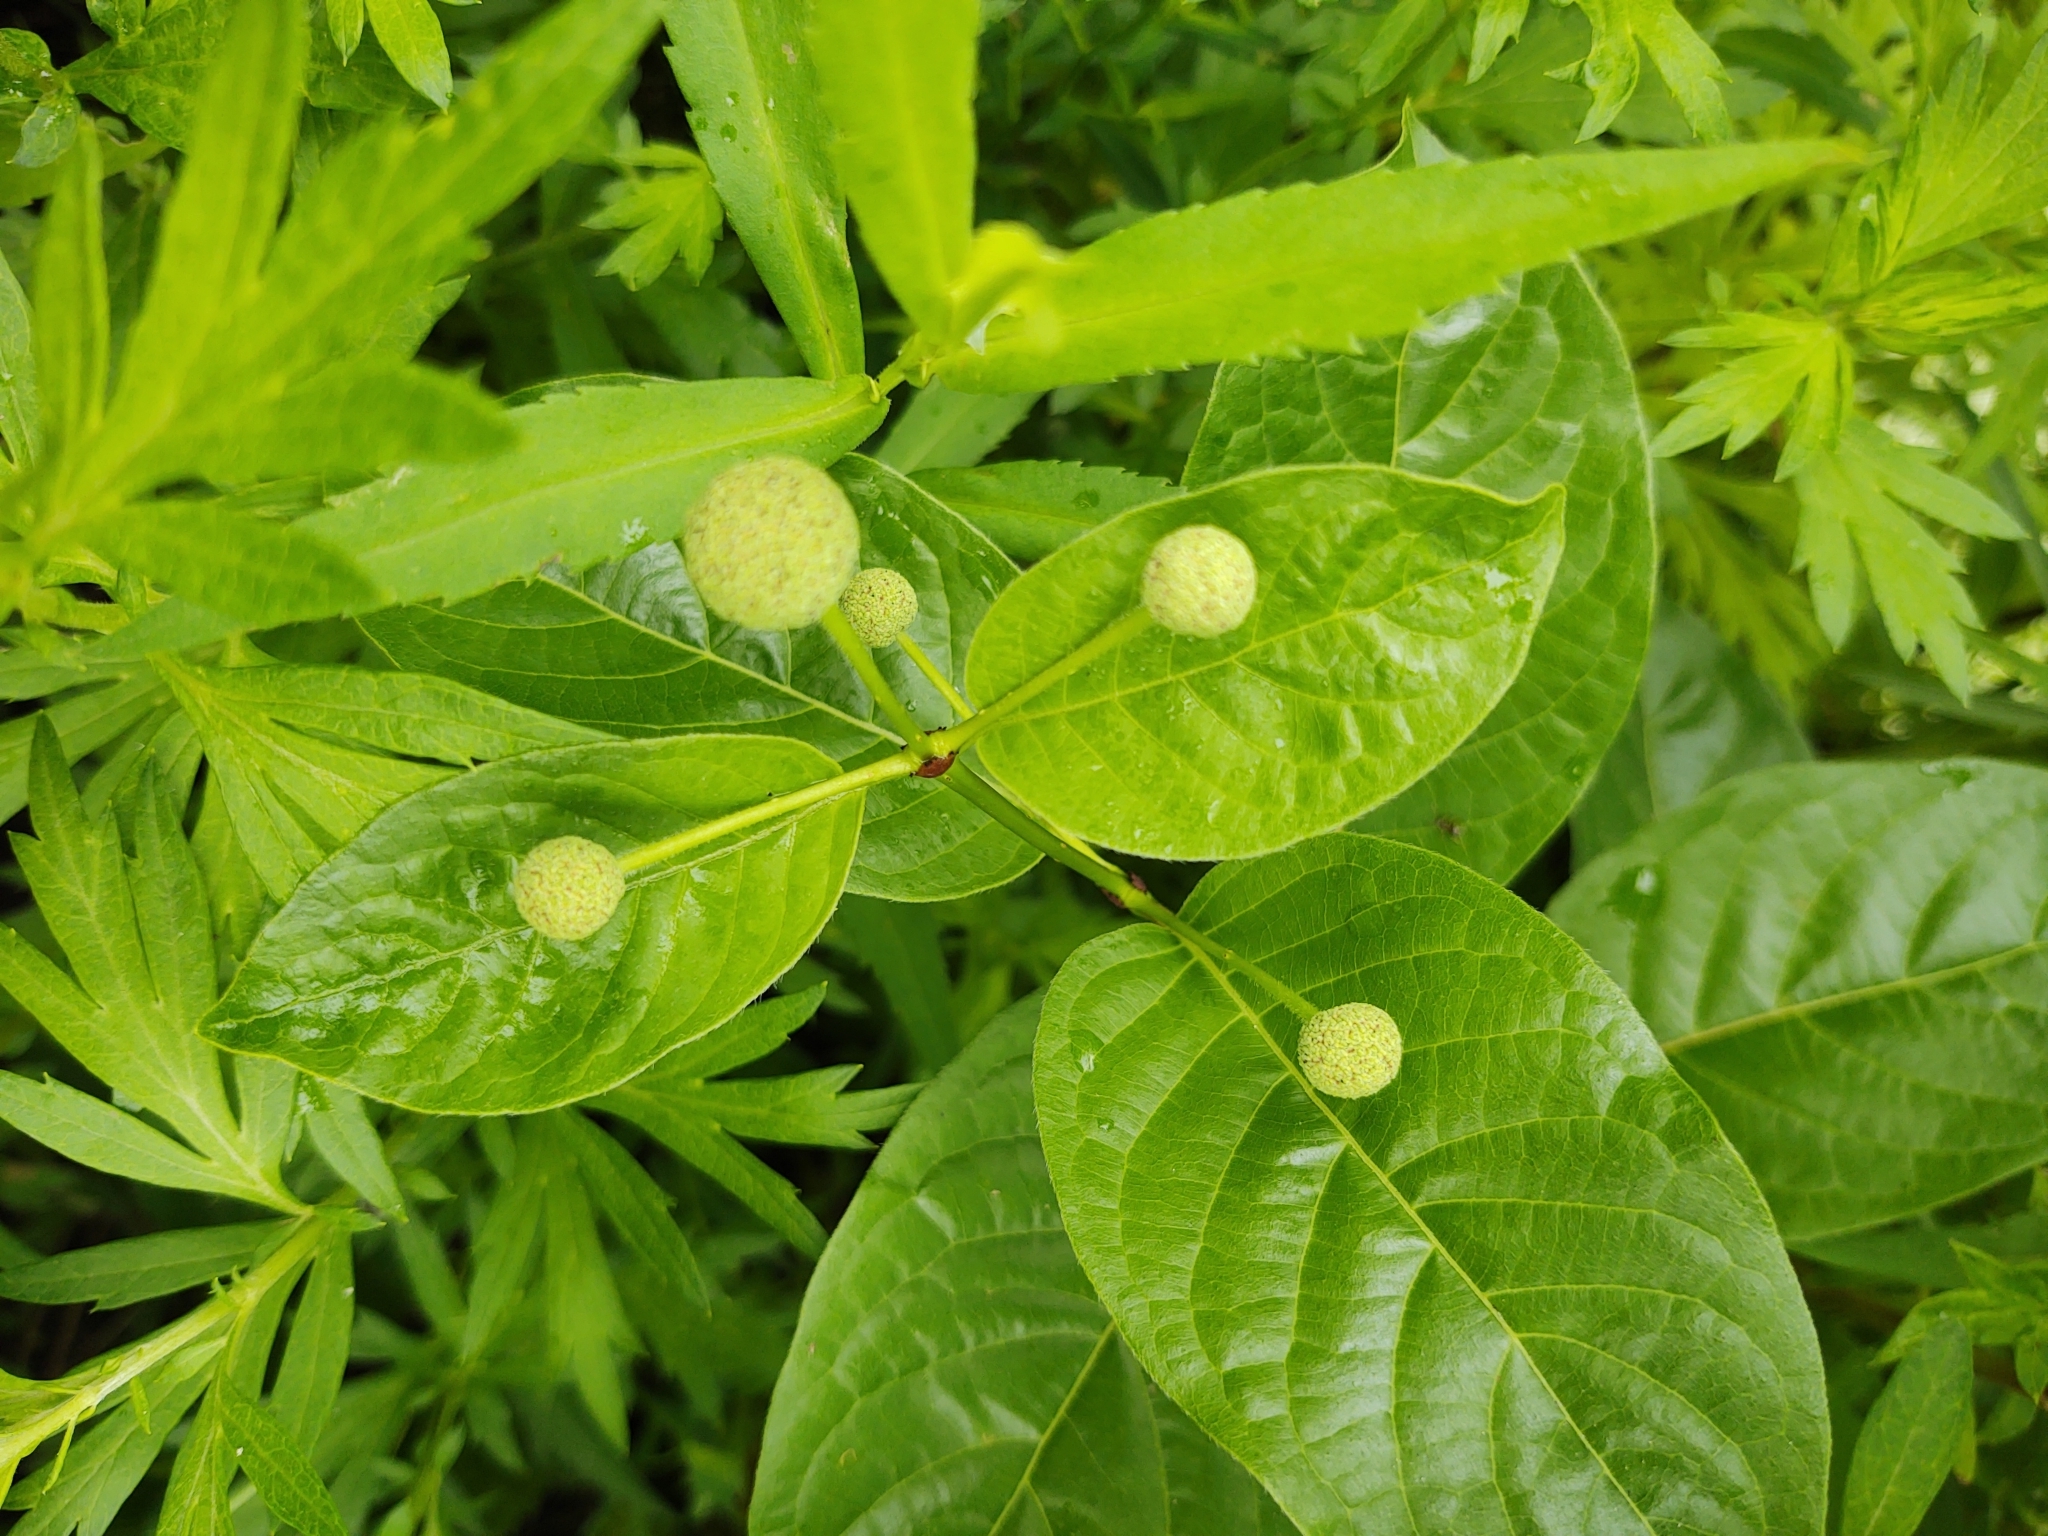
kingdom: Plantae
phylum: Tracheophyta
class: Magnoliopsida
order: Gentianales
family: Rubiaceae
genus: Cephalanthus
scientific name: Cephalanthus occidentalis
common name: Button-willow
